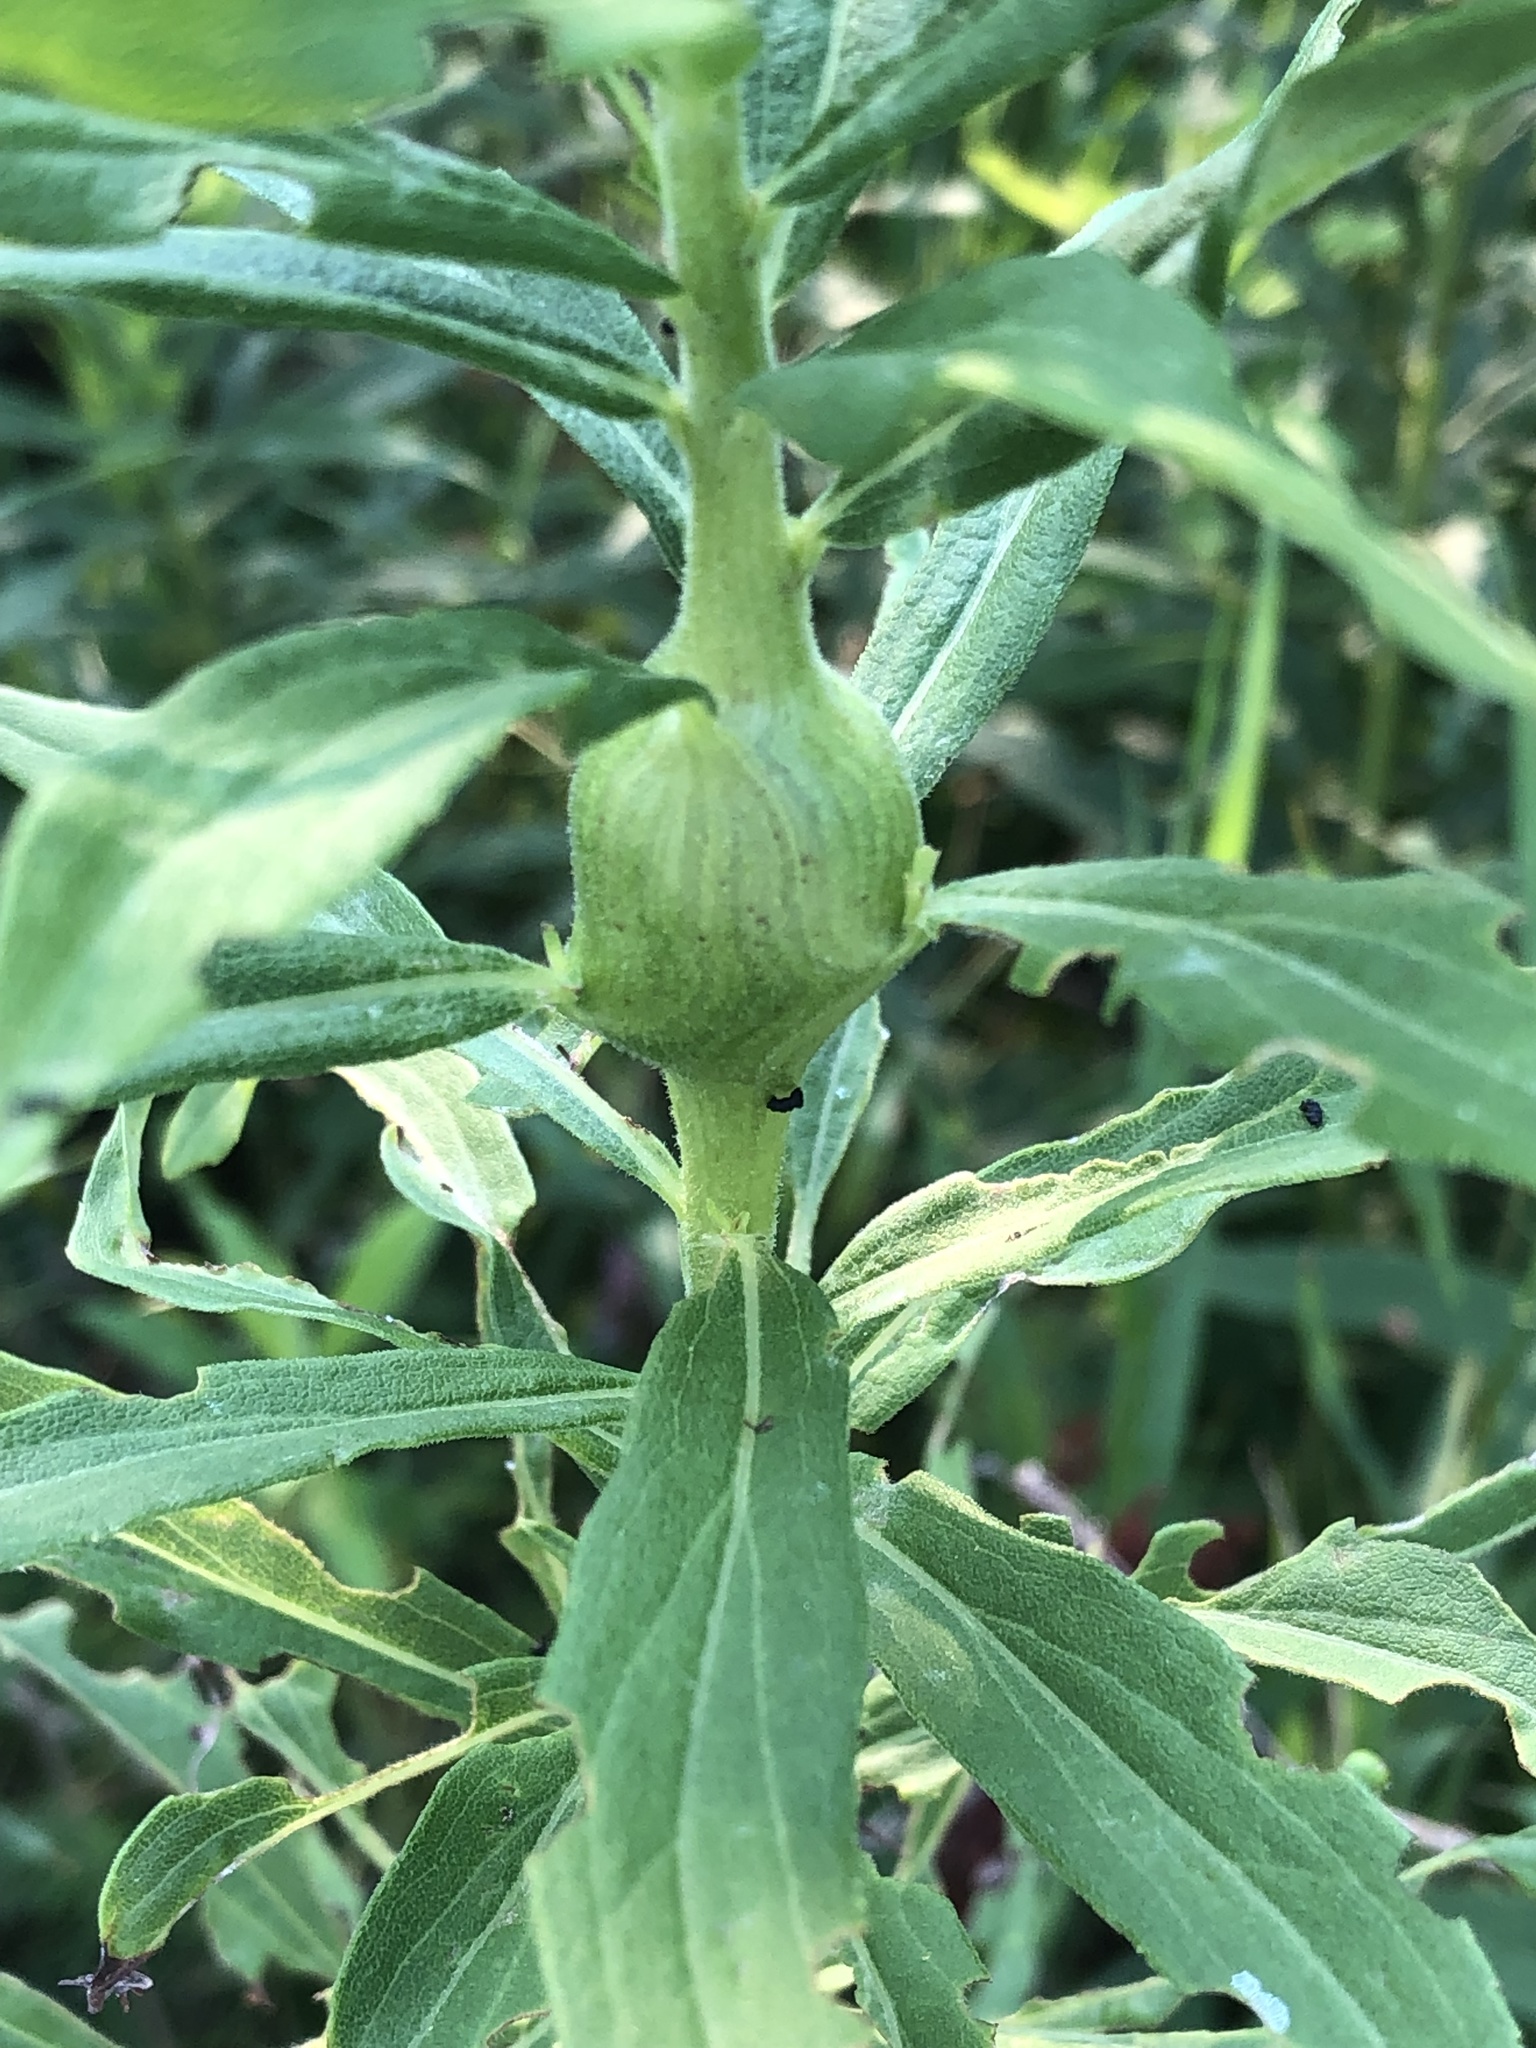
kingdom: Animalia
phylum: Arthropoda
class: Insecta
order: Diptera
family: Tephritidae
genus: Eurosta
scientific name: Eurosta solidaginis
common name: Goldenrod gall fly
